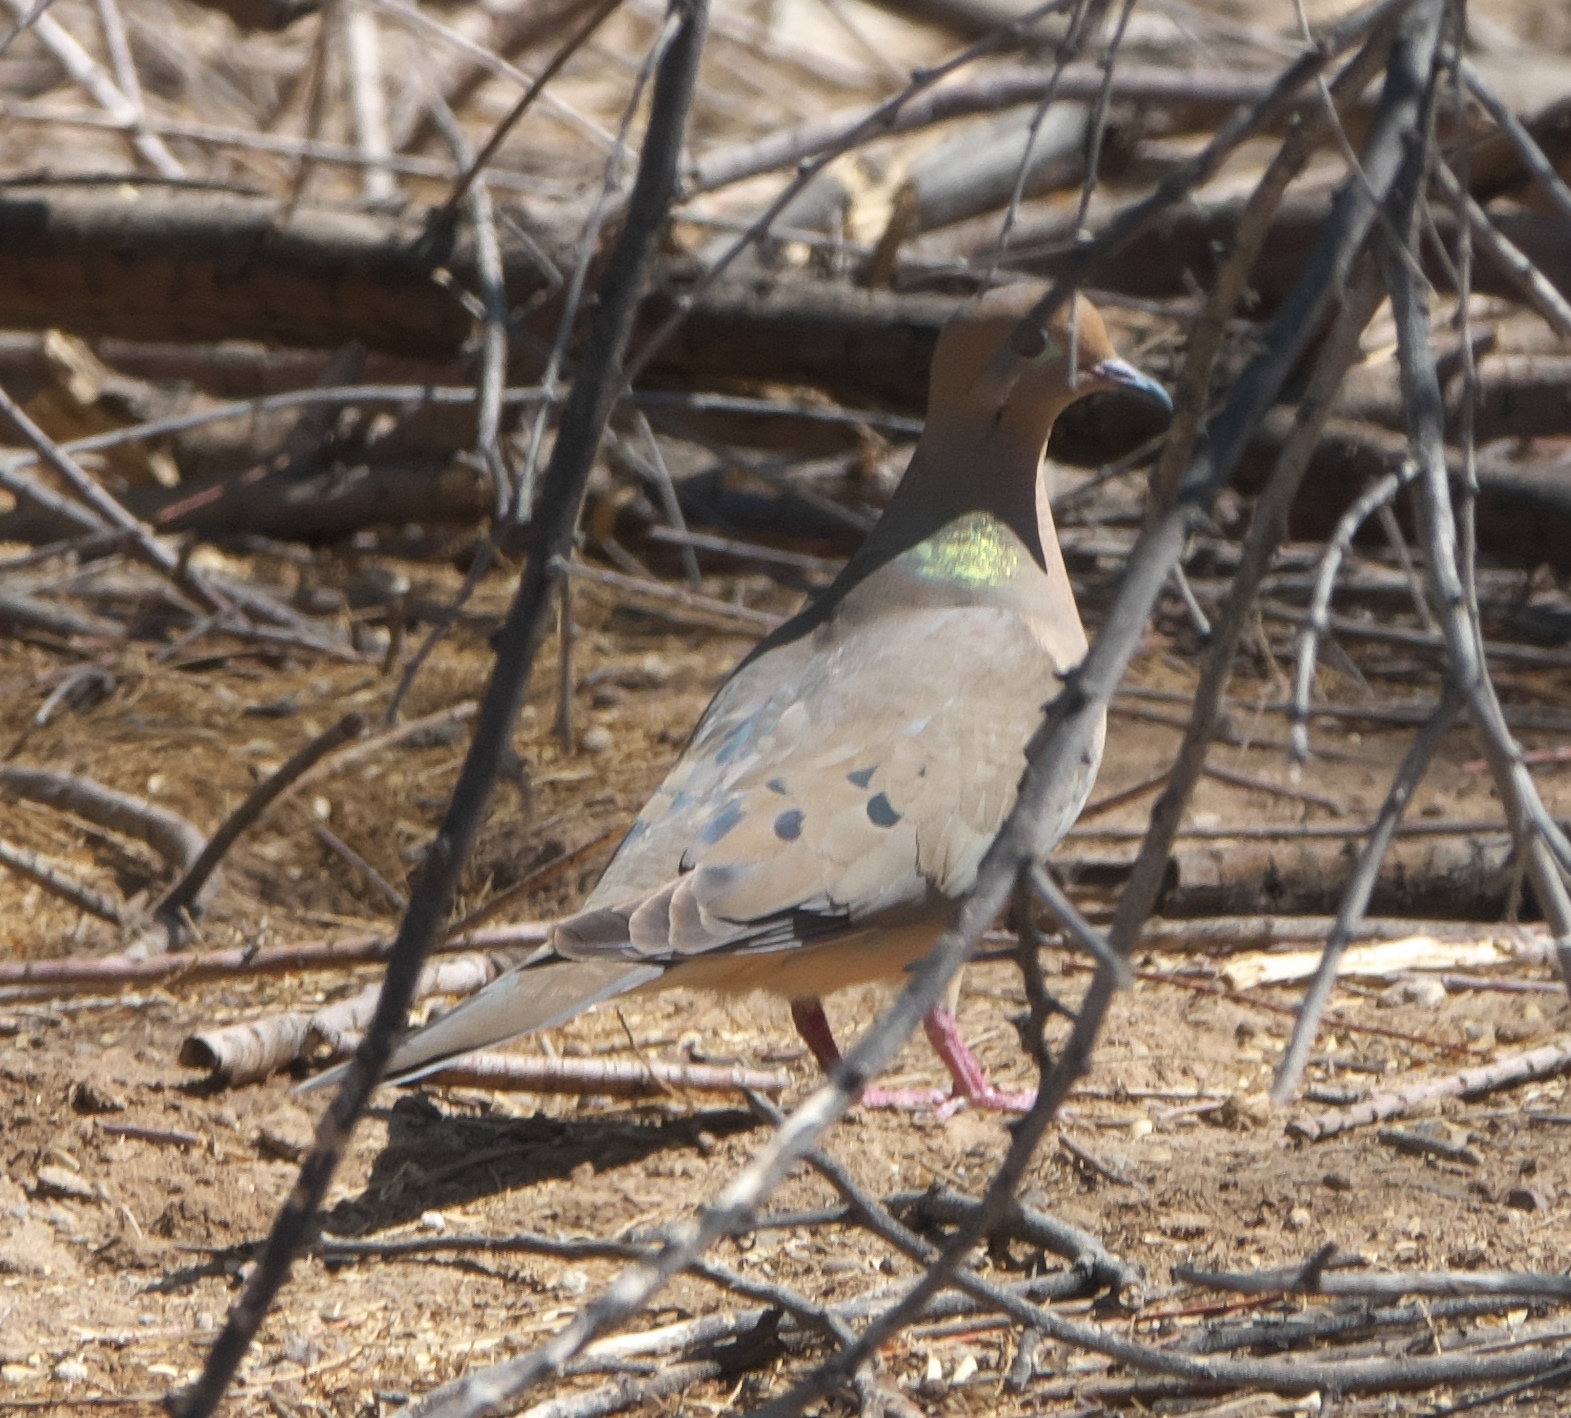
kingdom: Animalia
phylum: Chordata
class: Aves
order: Columbiformes
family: Columbidae
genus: Zenaida
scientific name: Zenaida macroura
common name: Mourning dove
